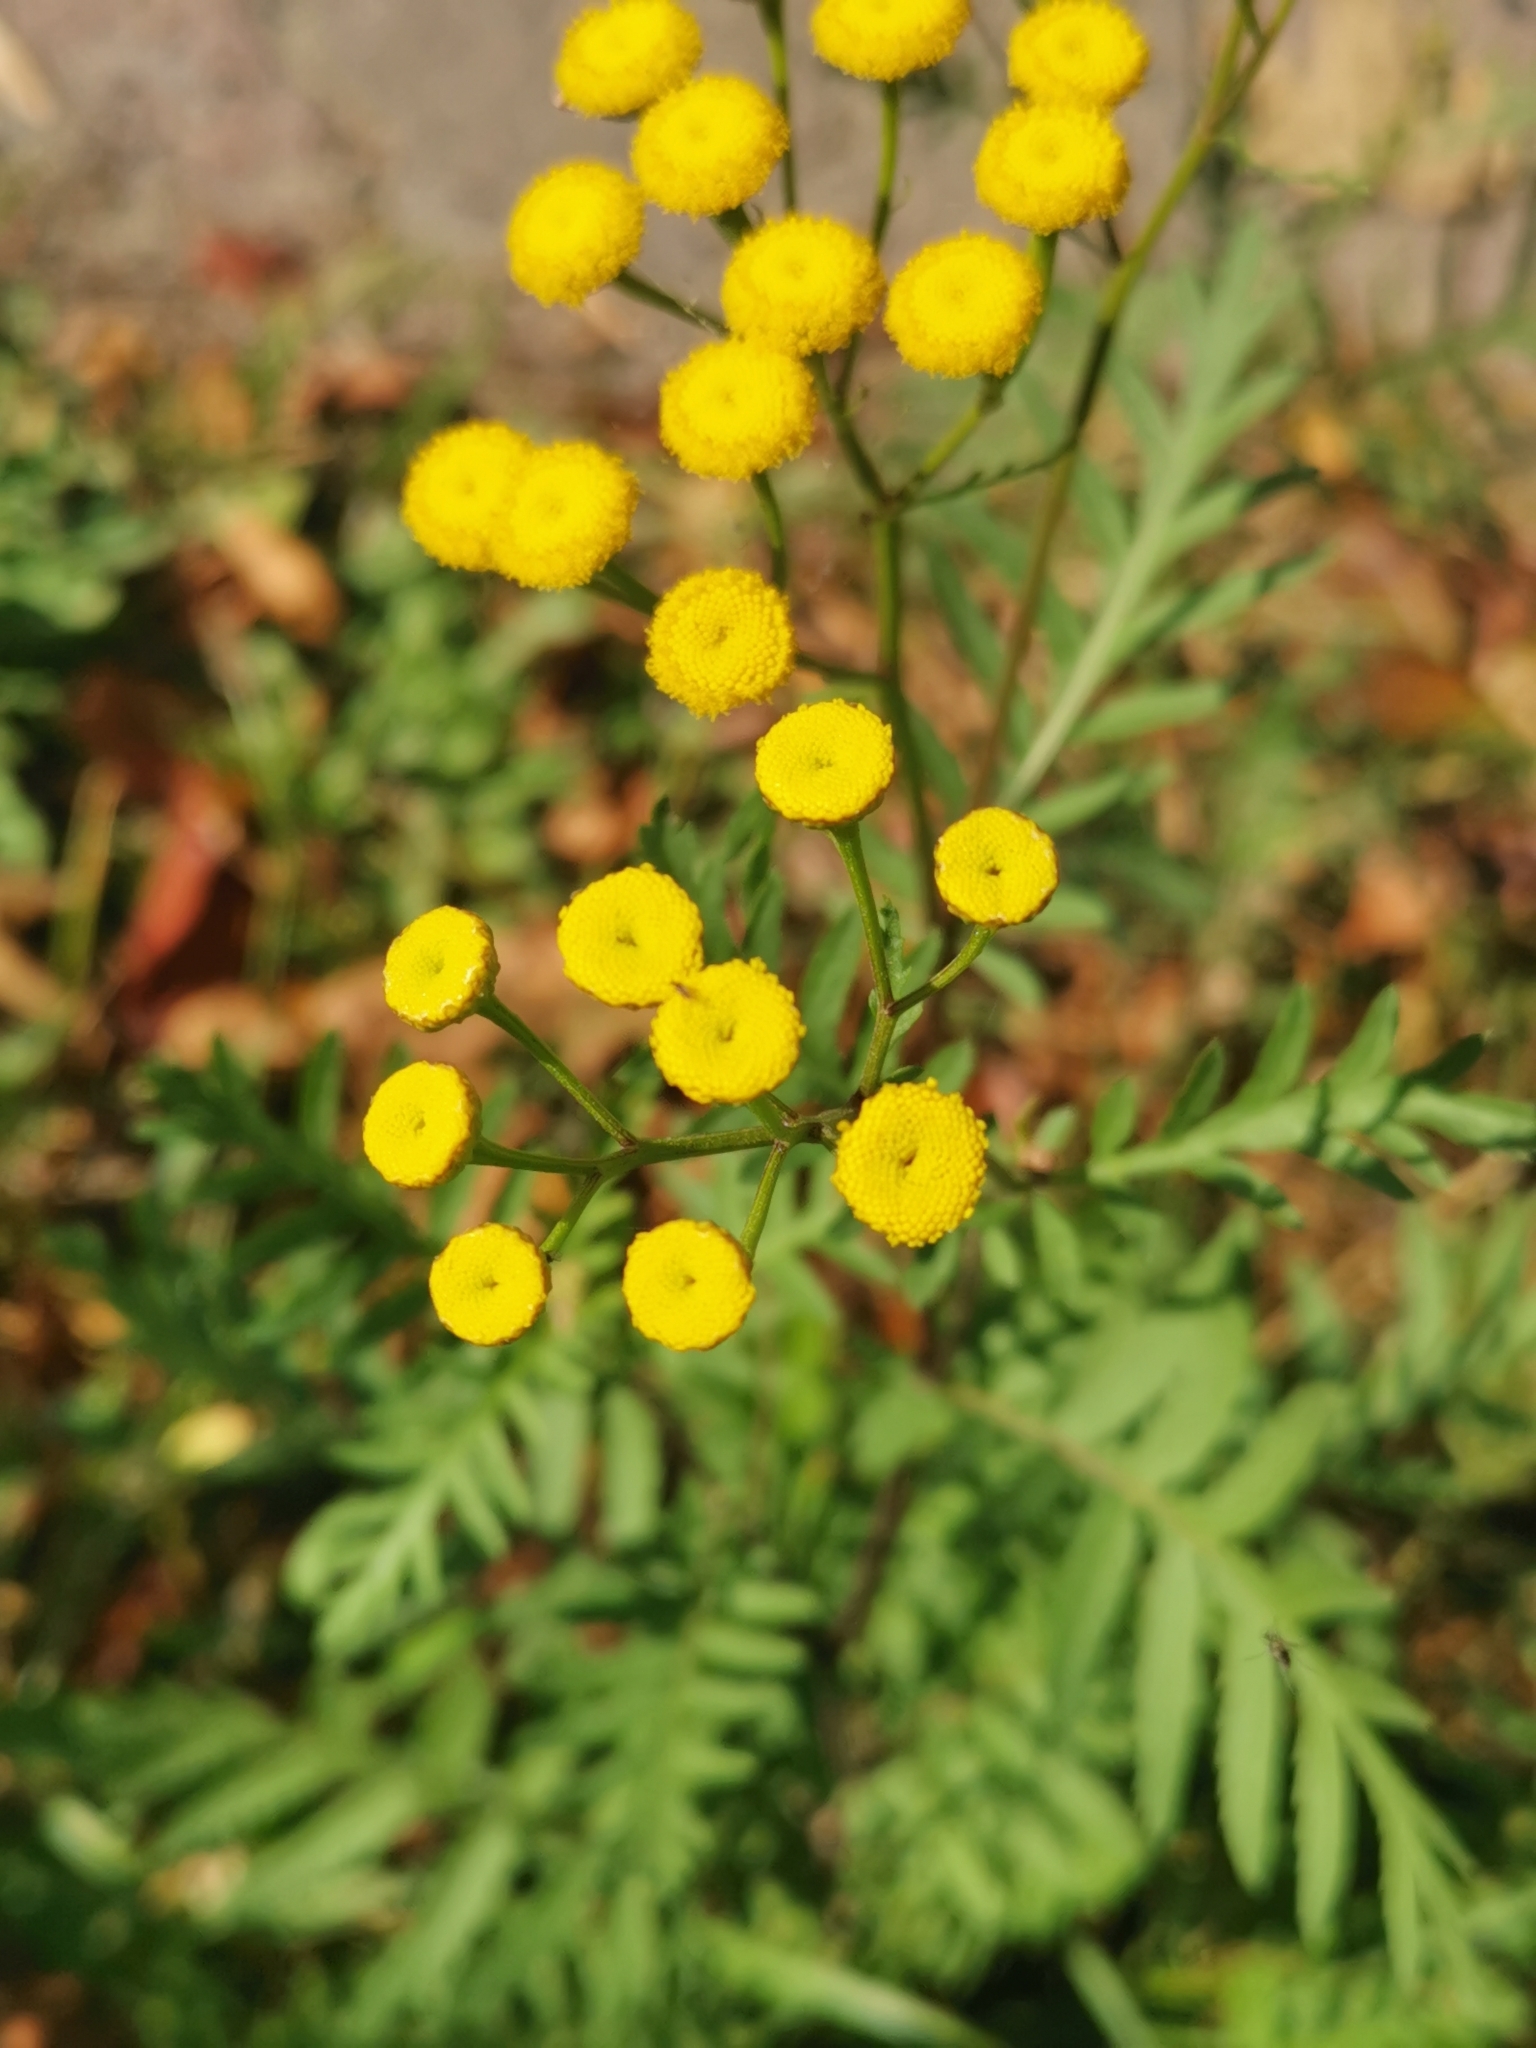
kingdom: Plantae
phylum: Tracheophyta
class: Magnoliopsida
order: Asterales
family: Asteraceae
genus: Tanacetum
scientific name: Tanacetum vulgare
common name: Common tansy
